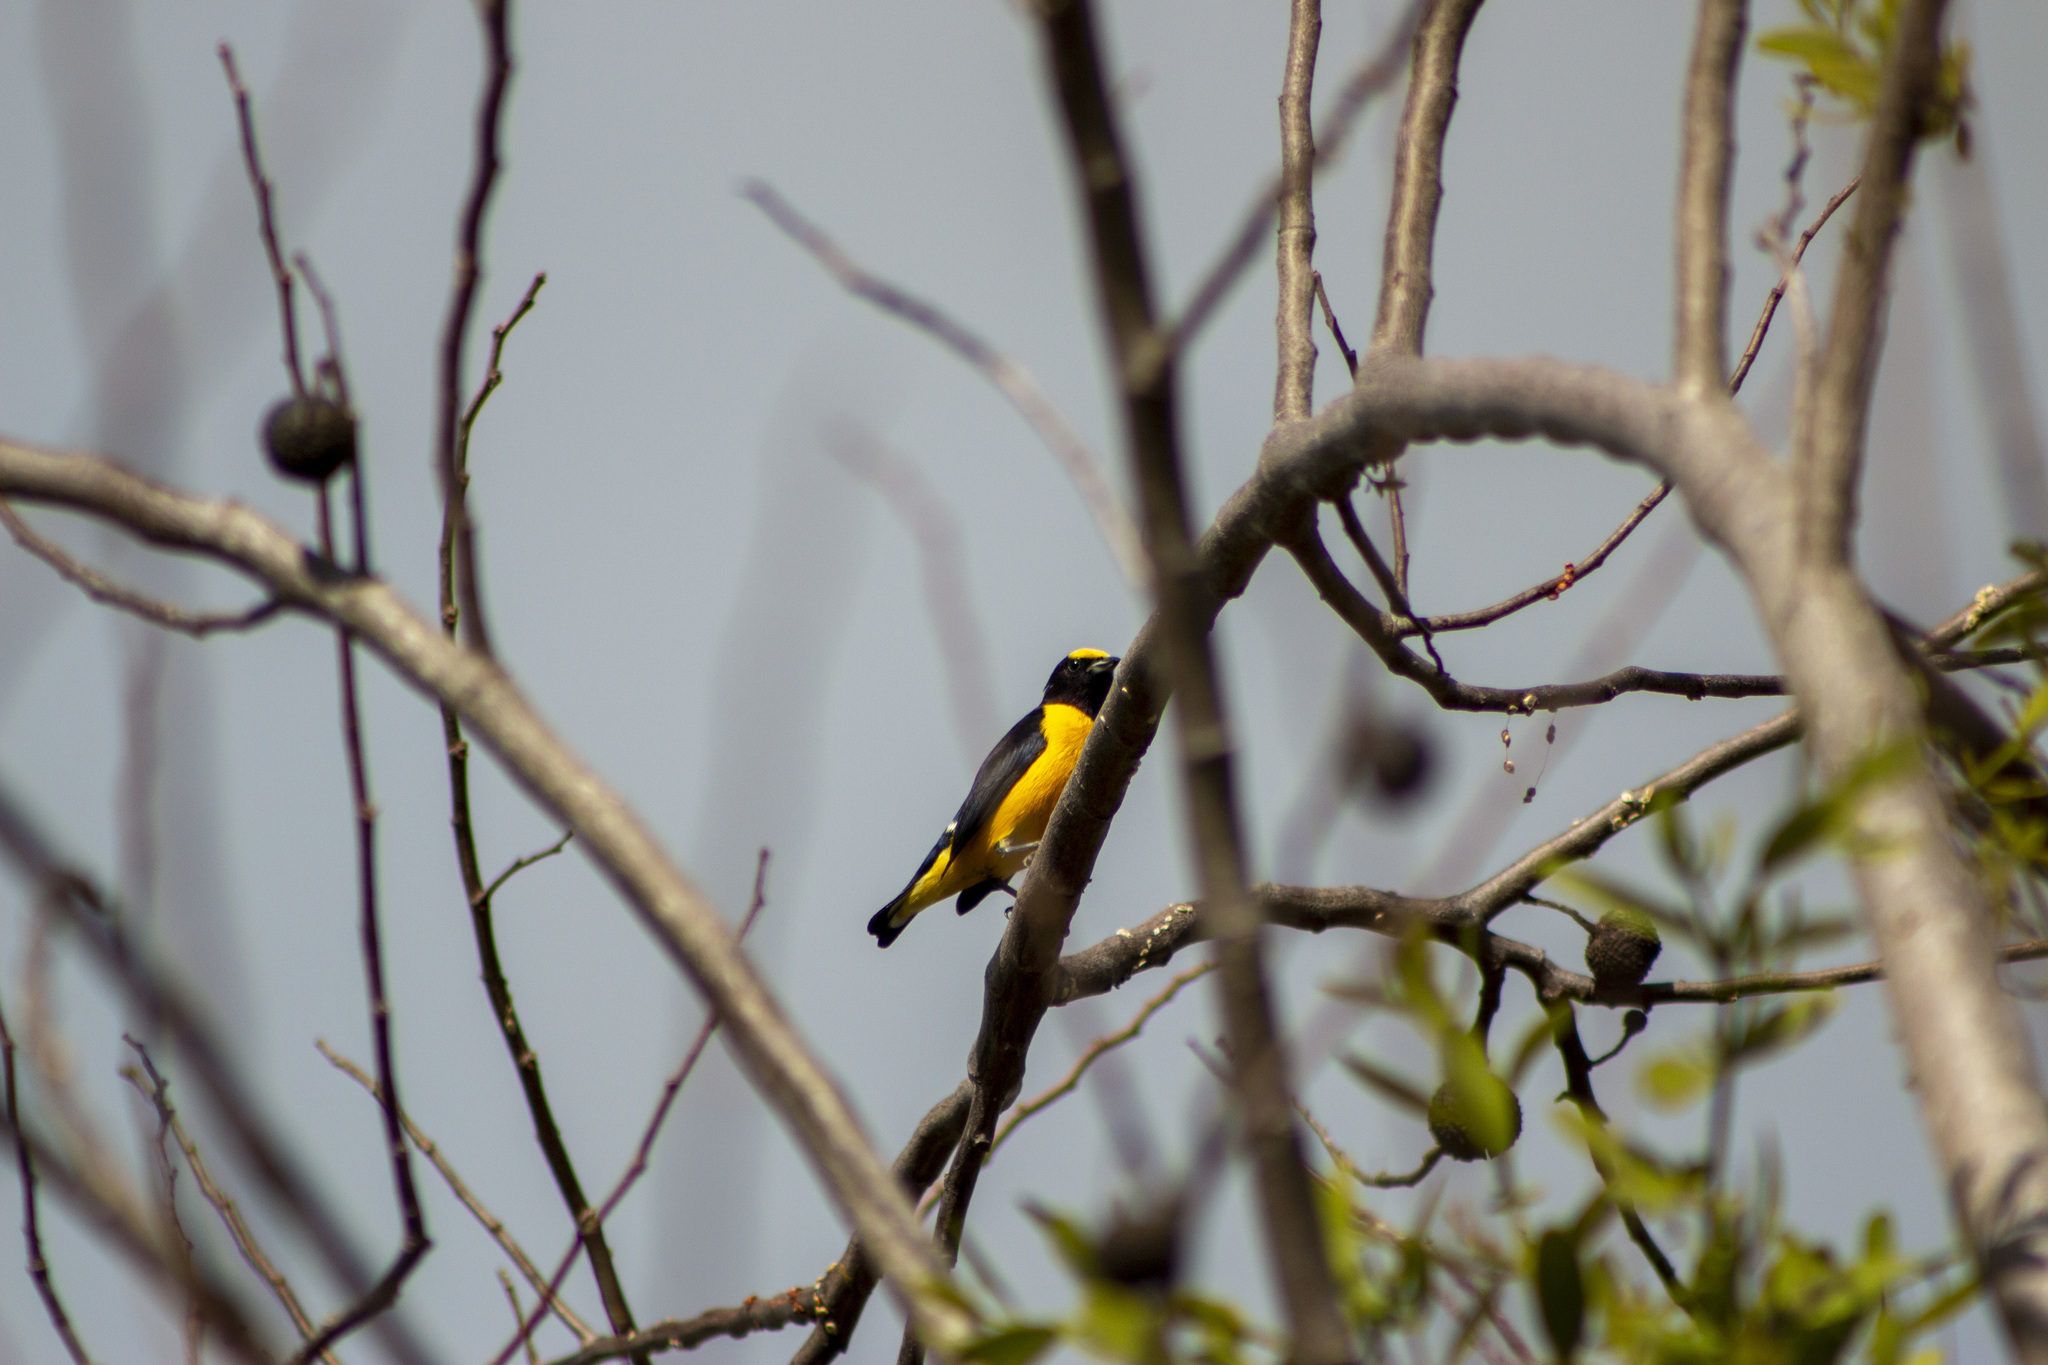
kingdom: Animalia
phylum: Chordata
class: Aves
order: Passeriformes
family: Fringillidae
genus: Euphonia
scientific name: Euphonia chlorotica
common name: Purple-throated euphonia
